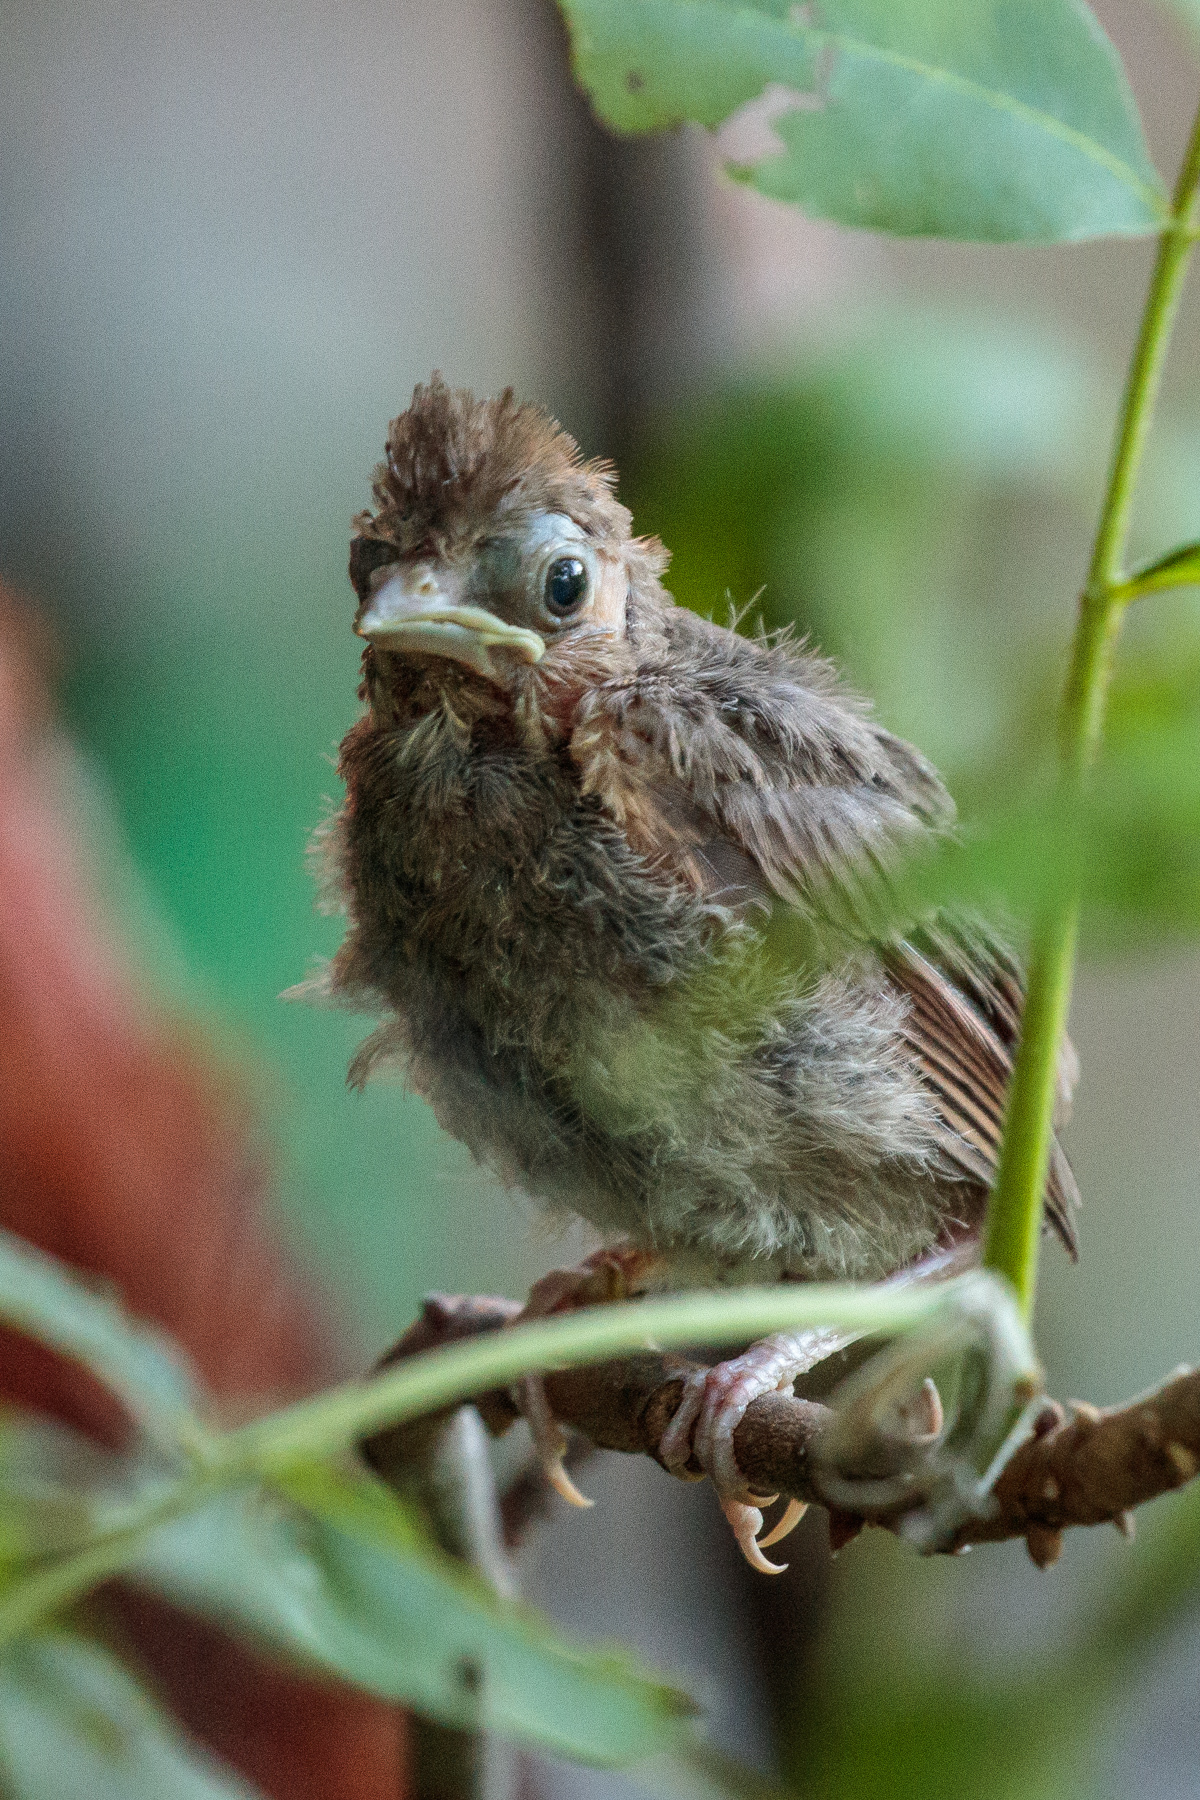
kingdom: Animalia
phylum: Chordata
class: Aves
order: Passeriformes
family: Cardinalidae
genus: Cardinalis
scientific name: Cardinalis cardinalis
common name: Northern cardinal
